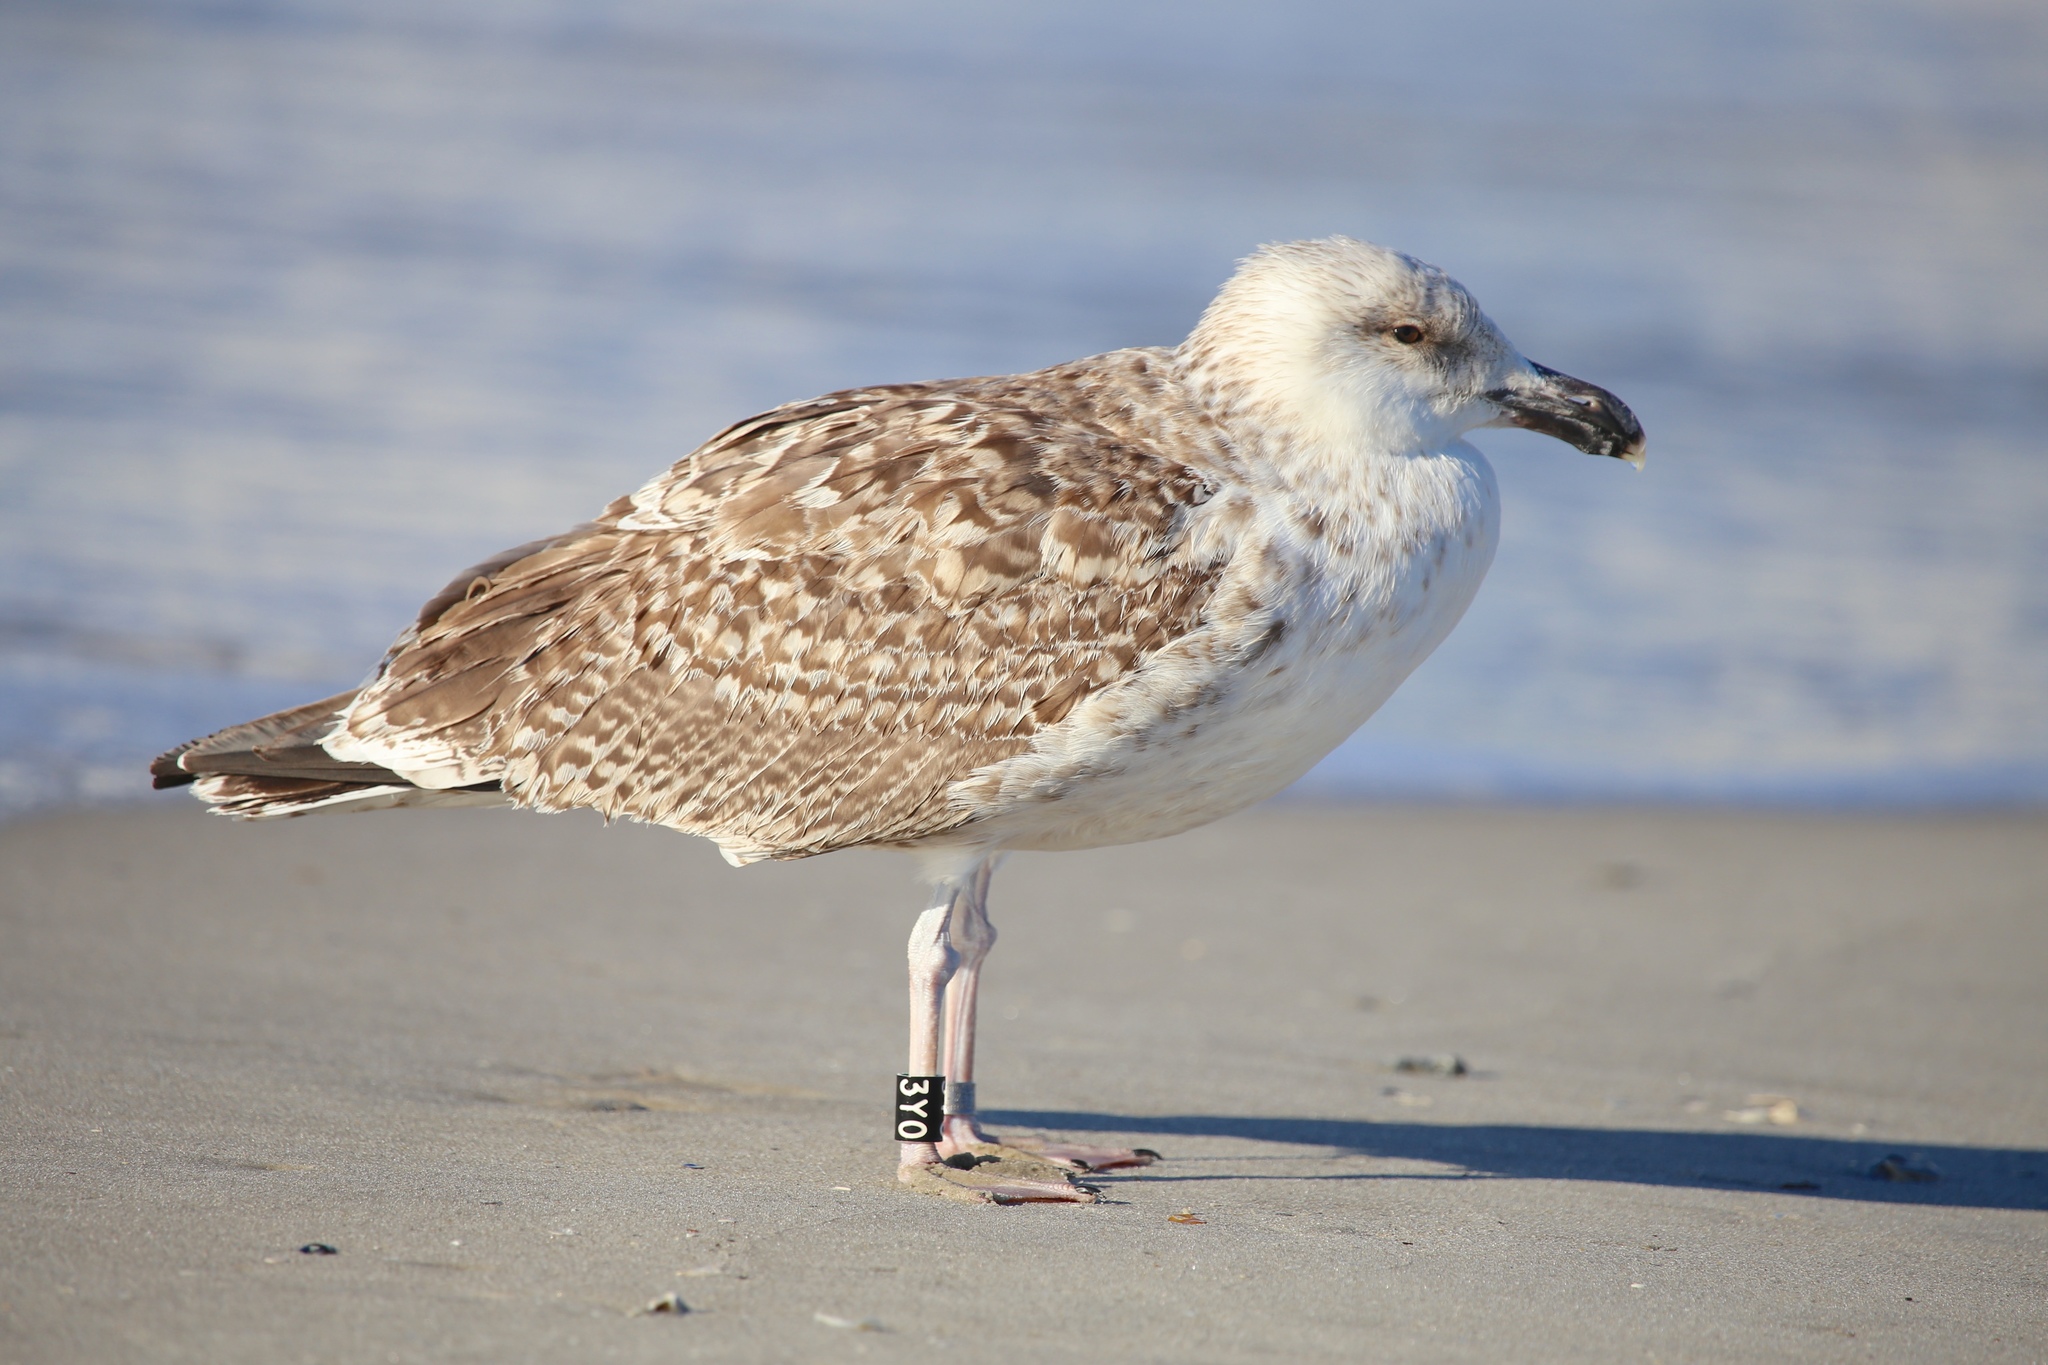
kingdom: Animalia
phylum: Chordata
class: Aves
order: Charadriiformes
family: Laridae
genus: Larus
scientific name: Larus marinus
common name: Great black-backed gull
